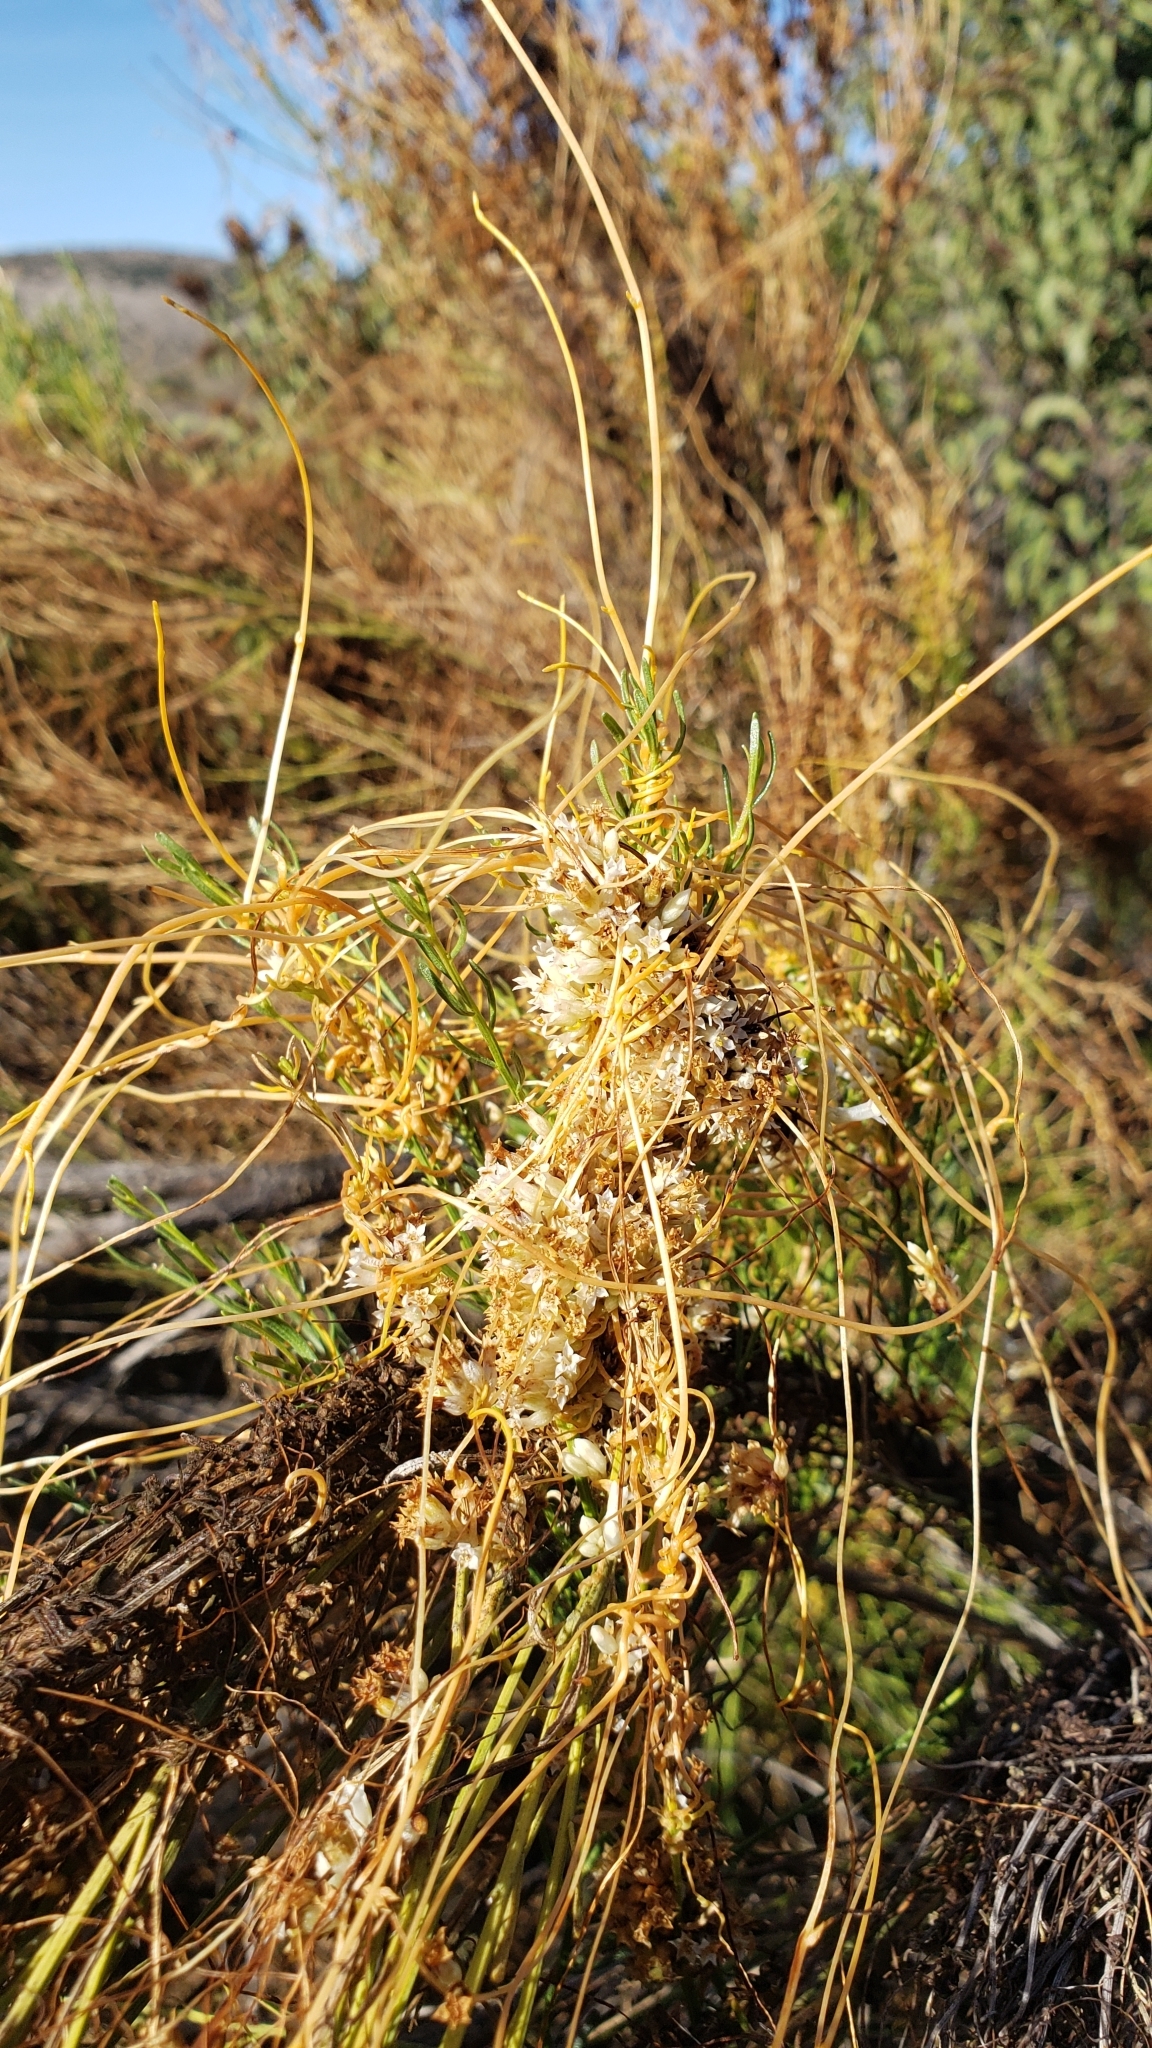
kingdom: Plantae
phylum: Tracheophyta
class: Magnoliopsida
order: Solanales
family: Convolvulaceae
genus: Cuscuta
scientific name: Cuscuta subinclusa
